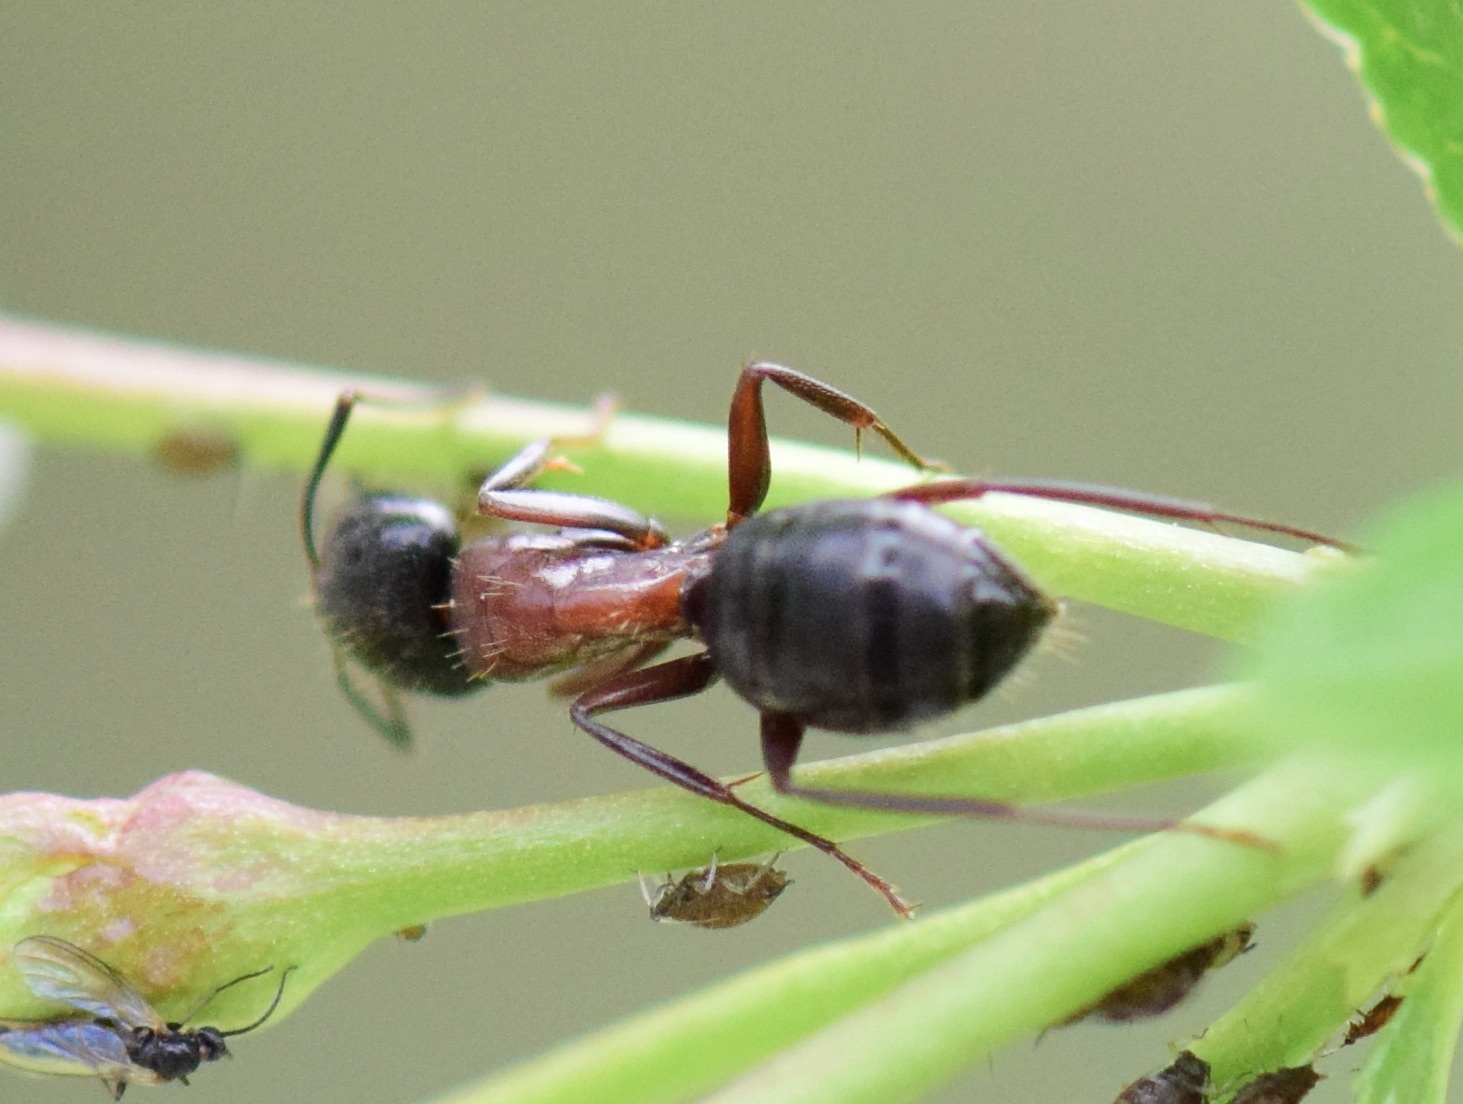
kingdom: Animalia
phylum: Arthropoda
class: Insecta
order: Hymenoptera
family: Formicidae
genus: Camponotus
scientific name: Camponotus novaeboracensis
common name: New york carpenter ant
